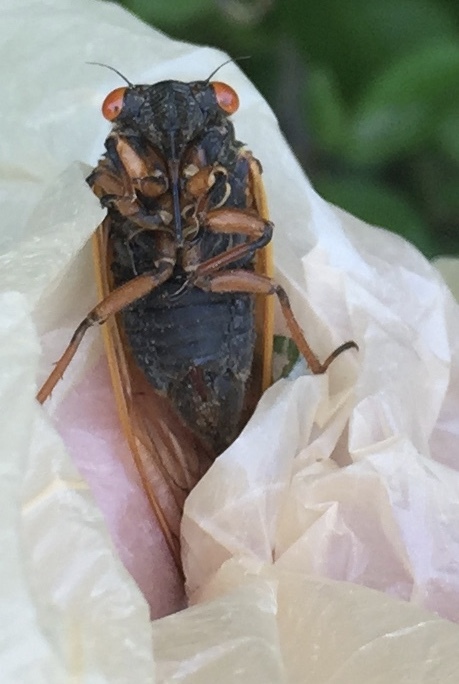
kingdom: Animalia
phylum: Arthropoda
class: Insecta
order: Hemiptera
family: Cicadidae
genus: Magicicada
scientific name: Magicicada cassini
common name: Cassin's 17-year cicada
